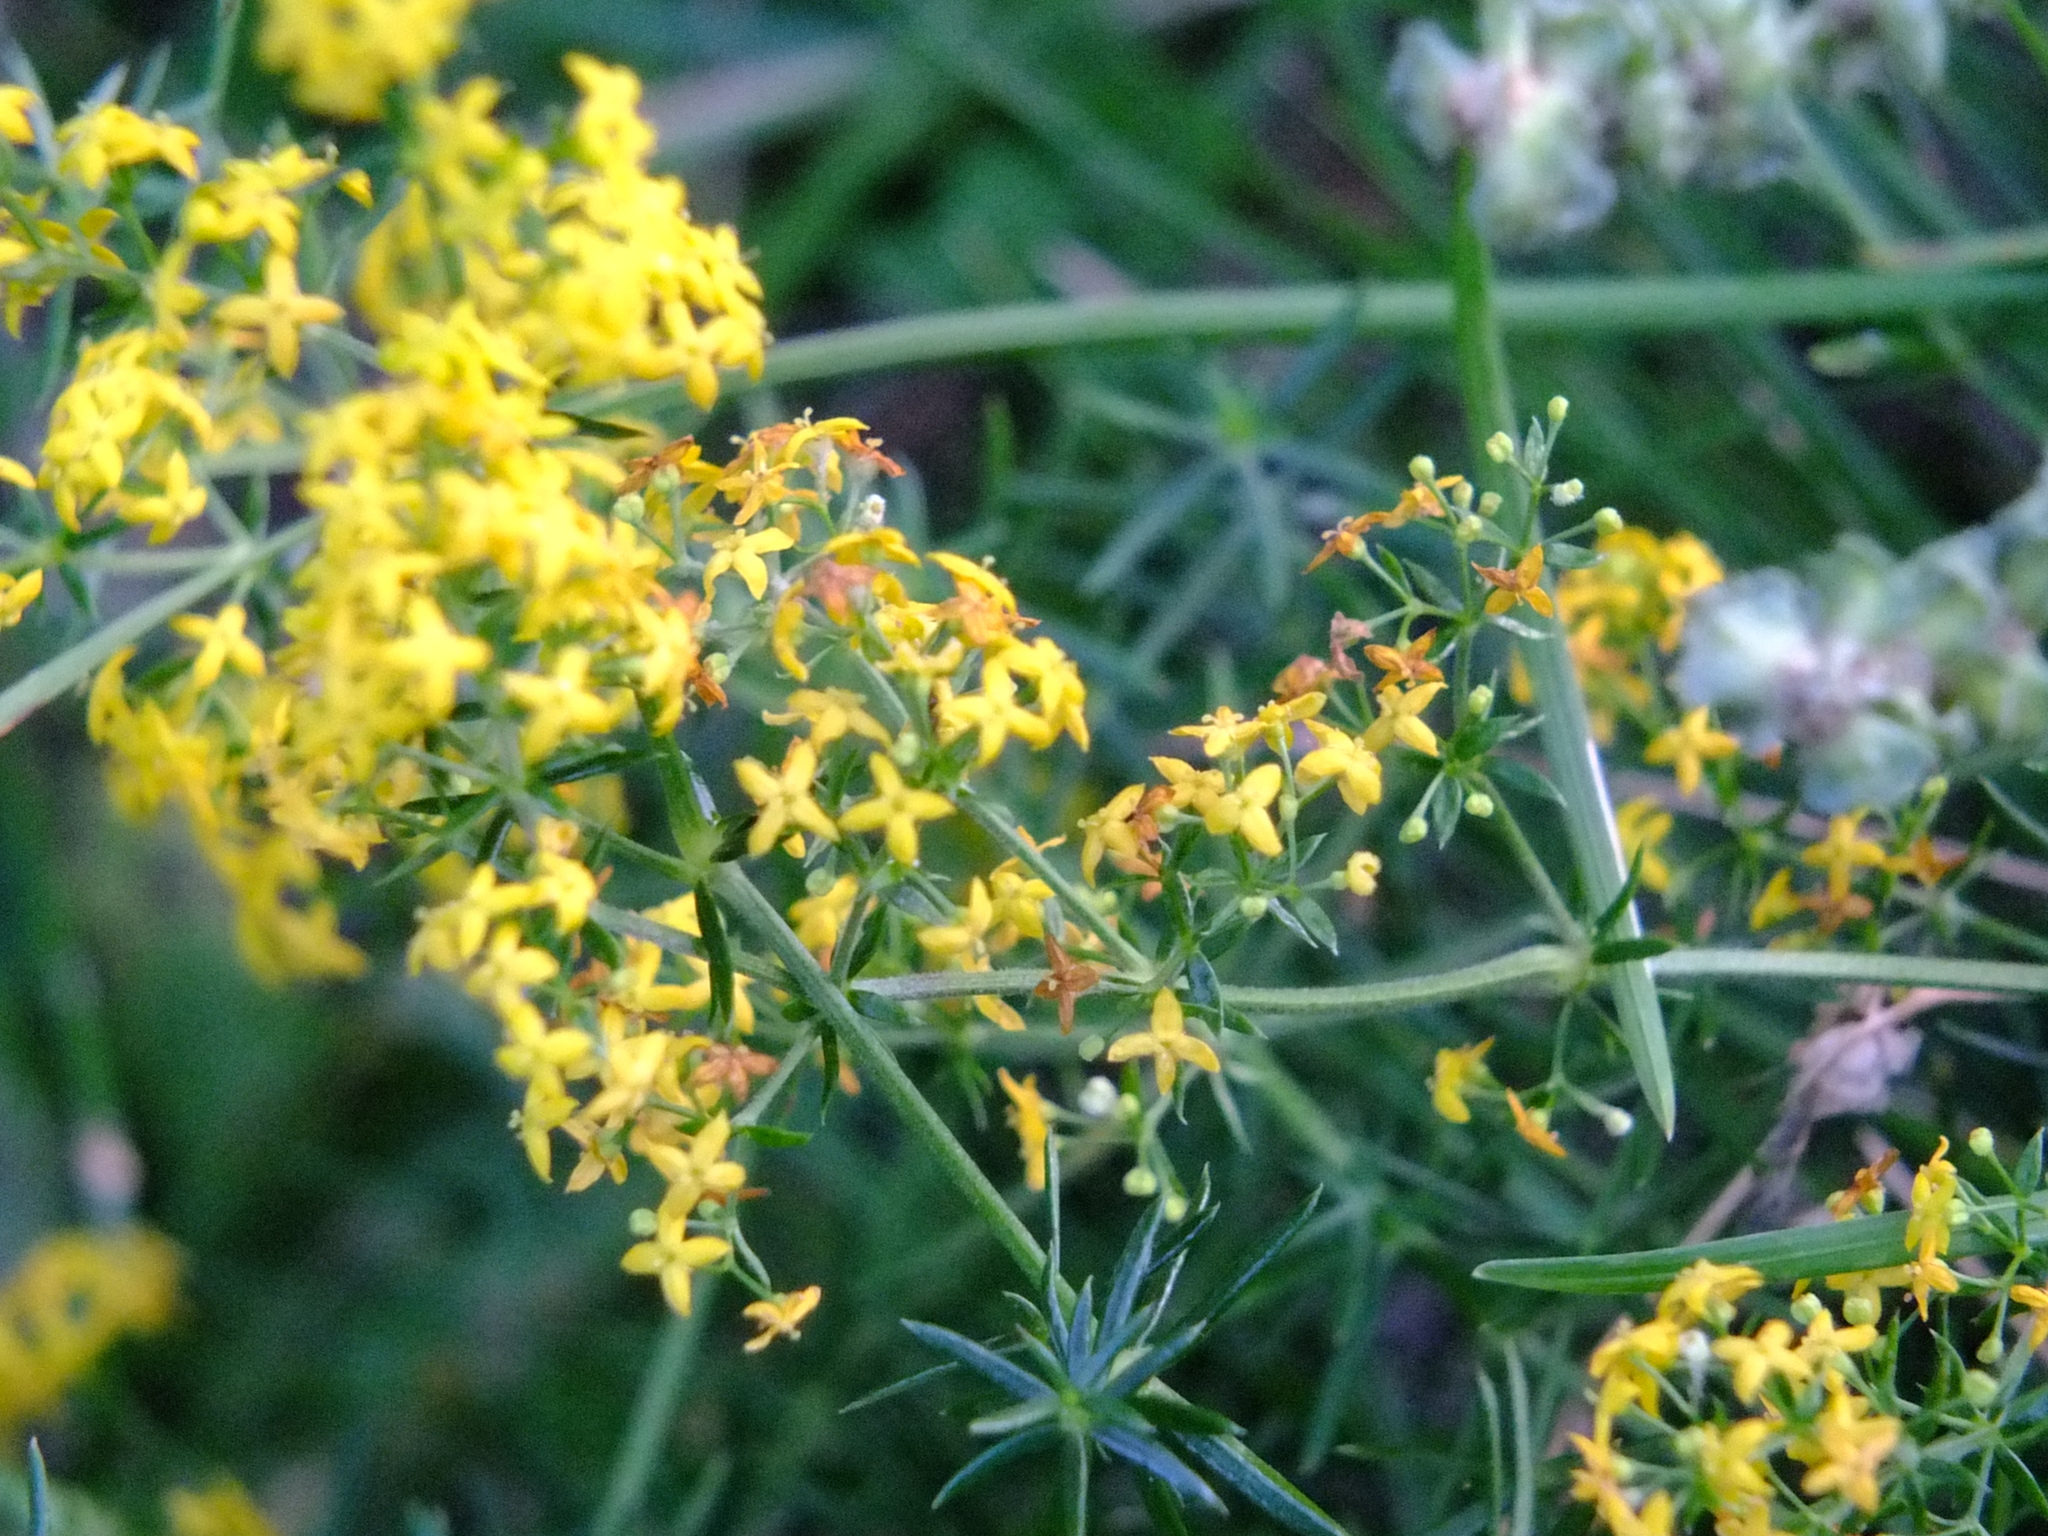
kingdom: Plantae
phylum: Tracheophyta
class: Magnoliopsida
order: Gentianales
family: Rubiaceae
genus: Galium
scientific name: Galium verum
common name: Lady's bedstraw
